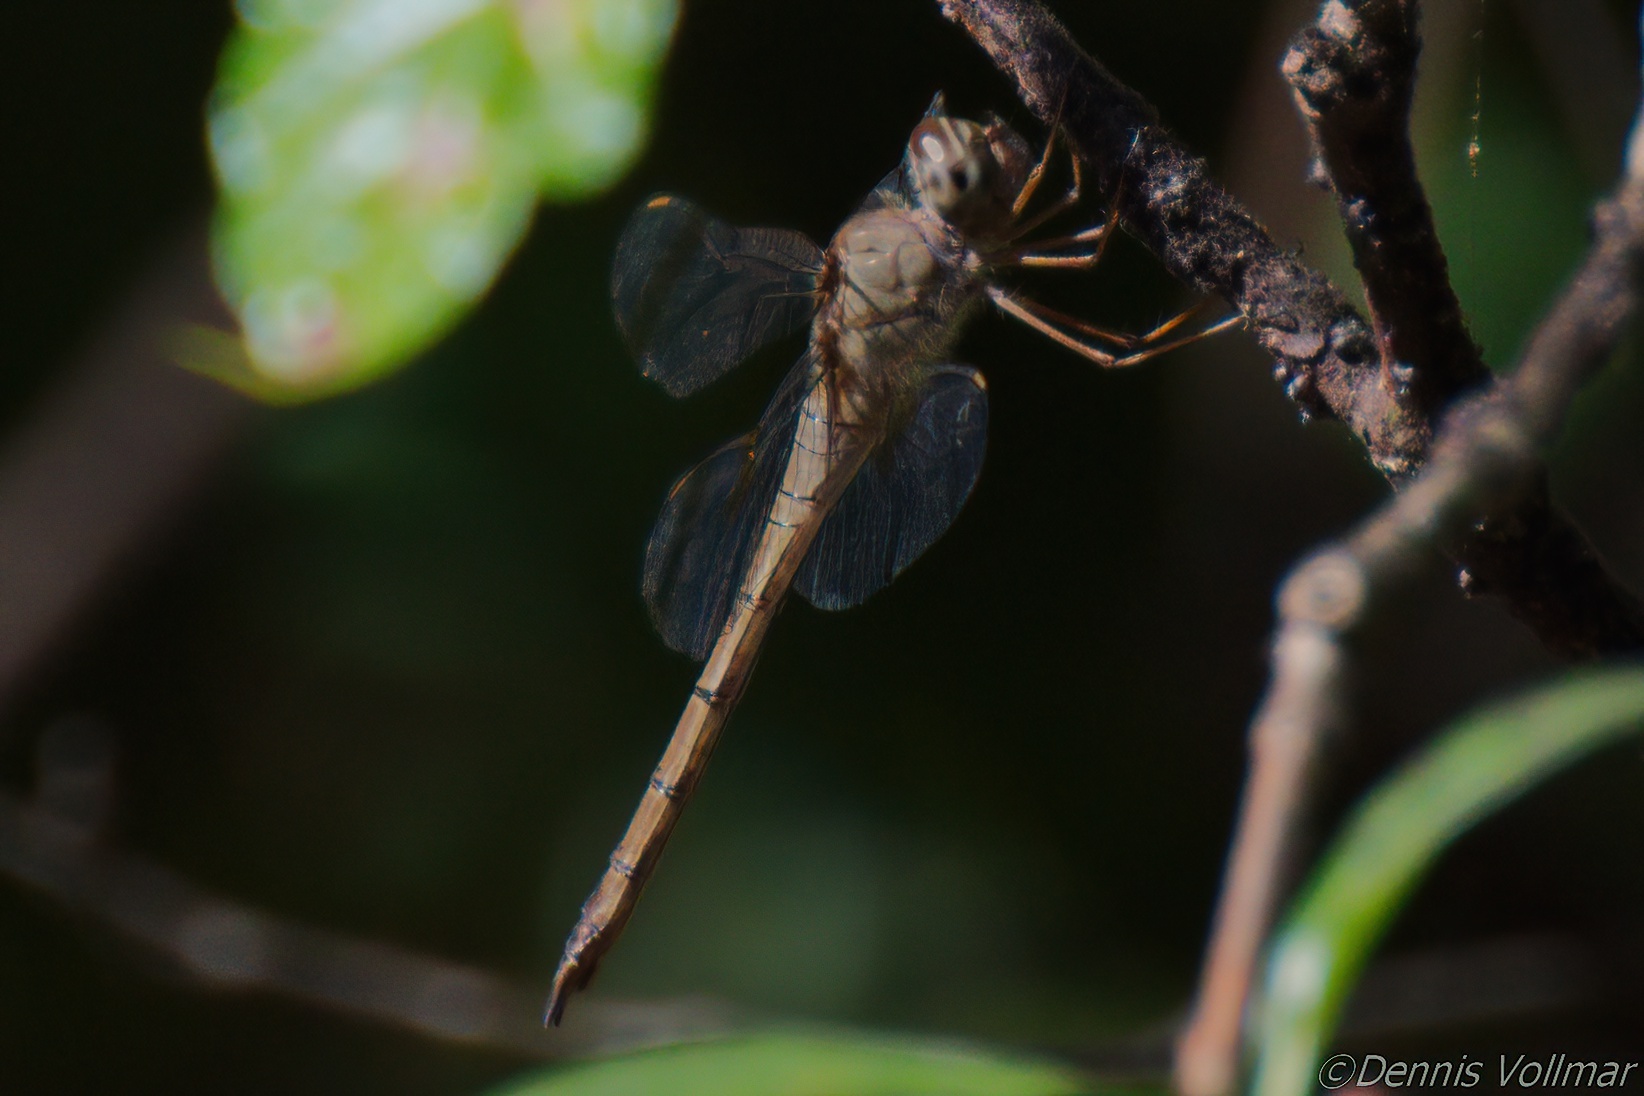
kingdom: Animalia
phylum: Arthropoda
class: Insecta
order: Odonata
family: Libellulidae
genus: Tholymis
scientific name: Tholymis citrina
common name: Evening skimmer
